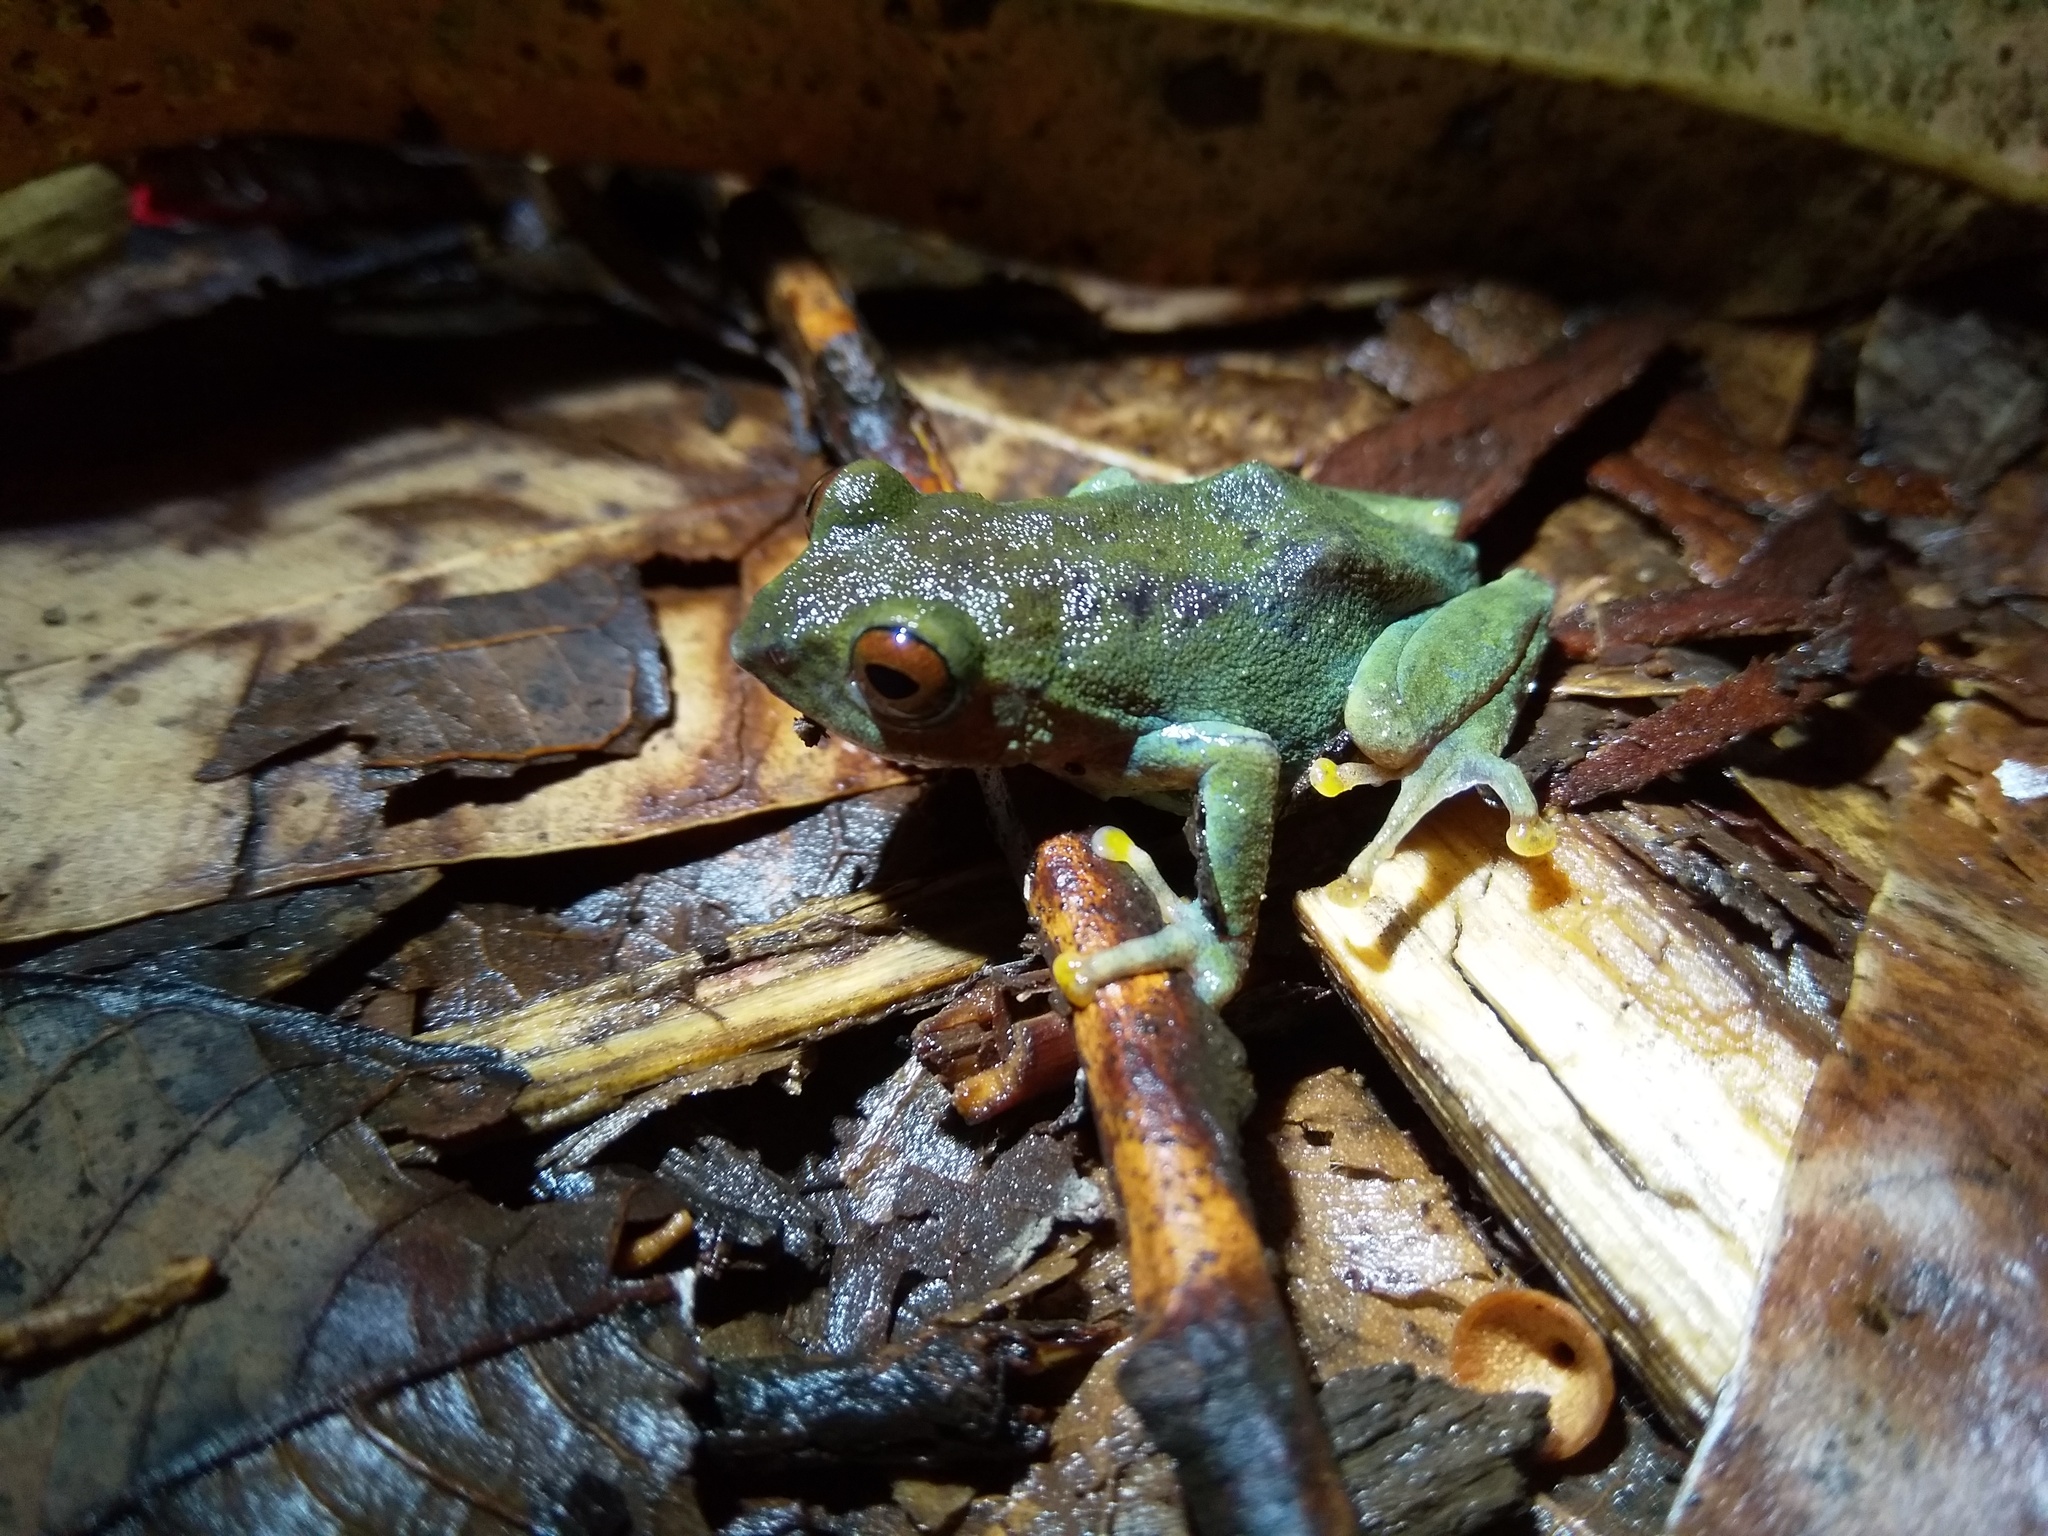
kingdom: Animalia
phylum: Chordata
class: Amphibia
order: Anura
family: Rhacophoridae
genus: Raorchestes
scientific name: Raorchestes beddomii
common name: Beddome's bush frog
